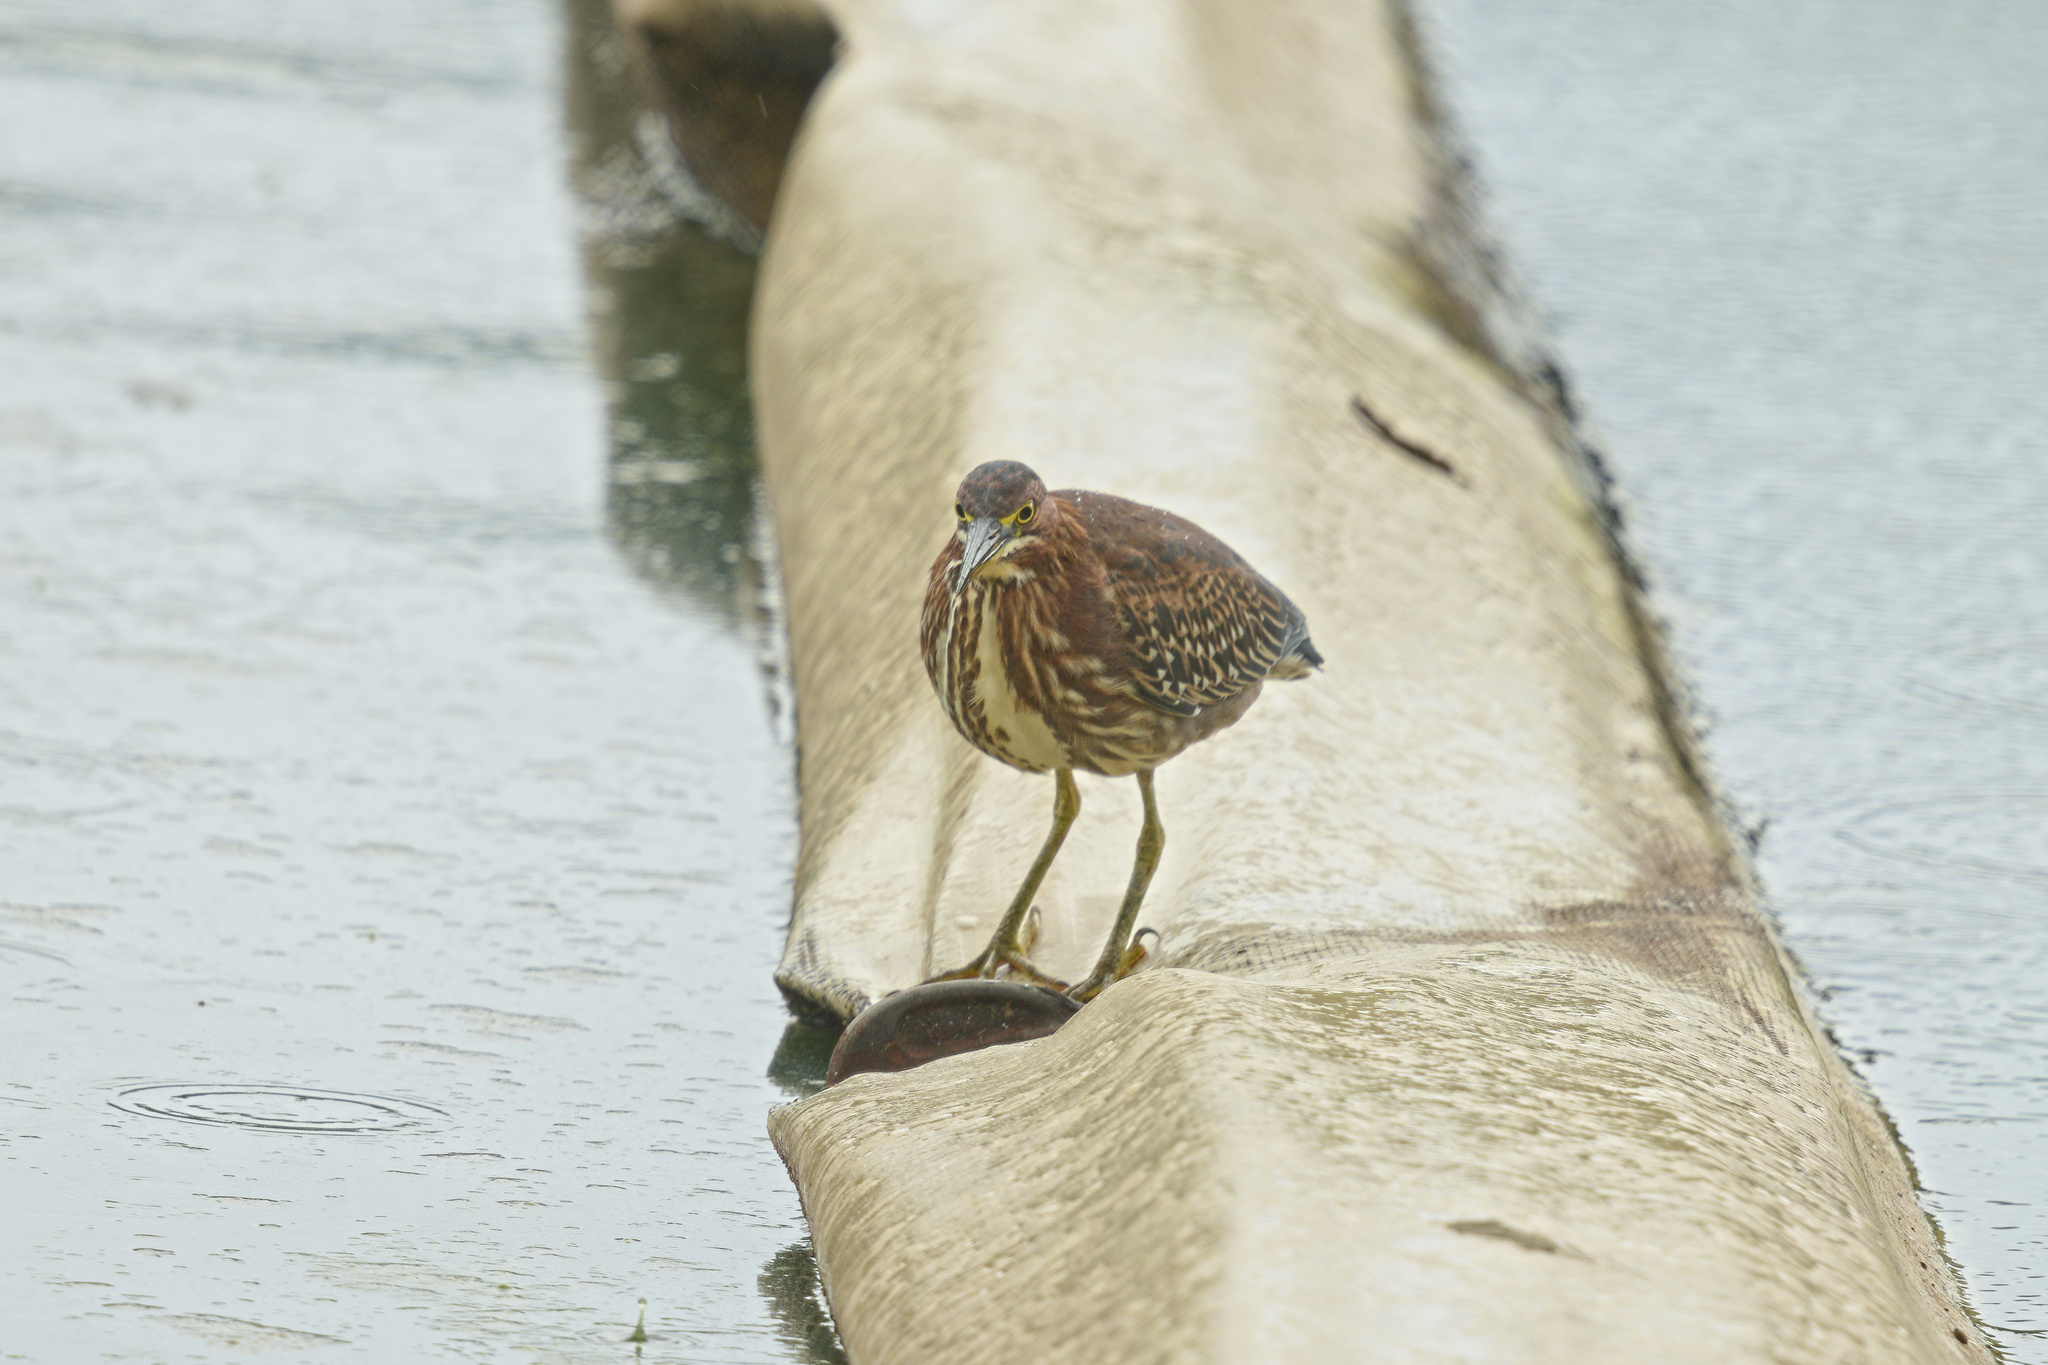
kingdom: Animalia
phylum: Chordata
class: Aves
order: Pelecaniformes
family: Ardeidae
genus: Butorides
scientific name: Butorides virescens
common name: Green heron
